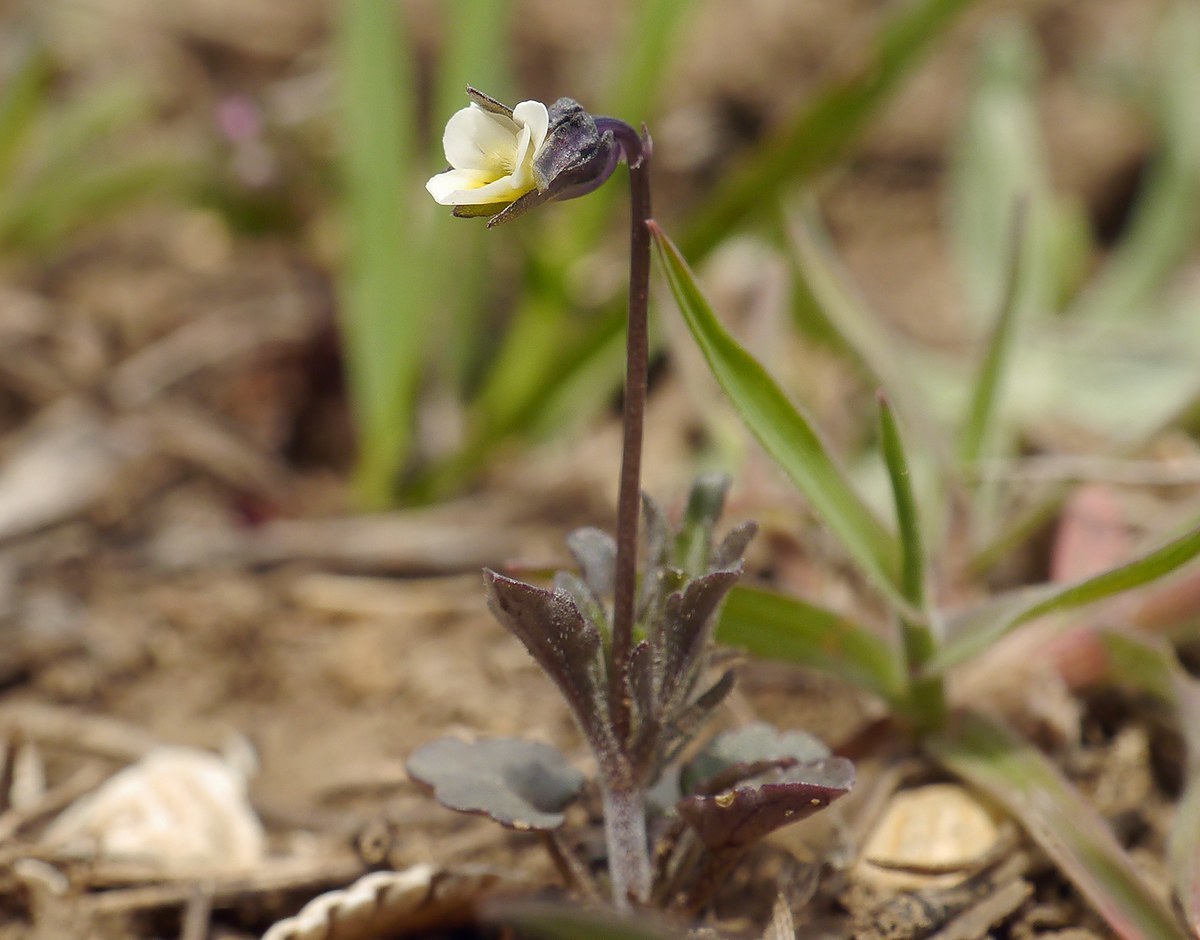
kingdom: Plantae
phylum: Tracheophyta
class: Magnoliopsida
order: Malpighiales
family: Violaceae
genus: Viola
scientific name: Viola arvensis
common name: Field pansy
